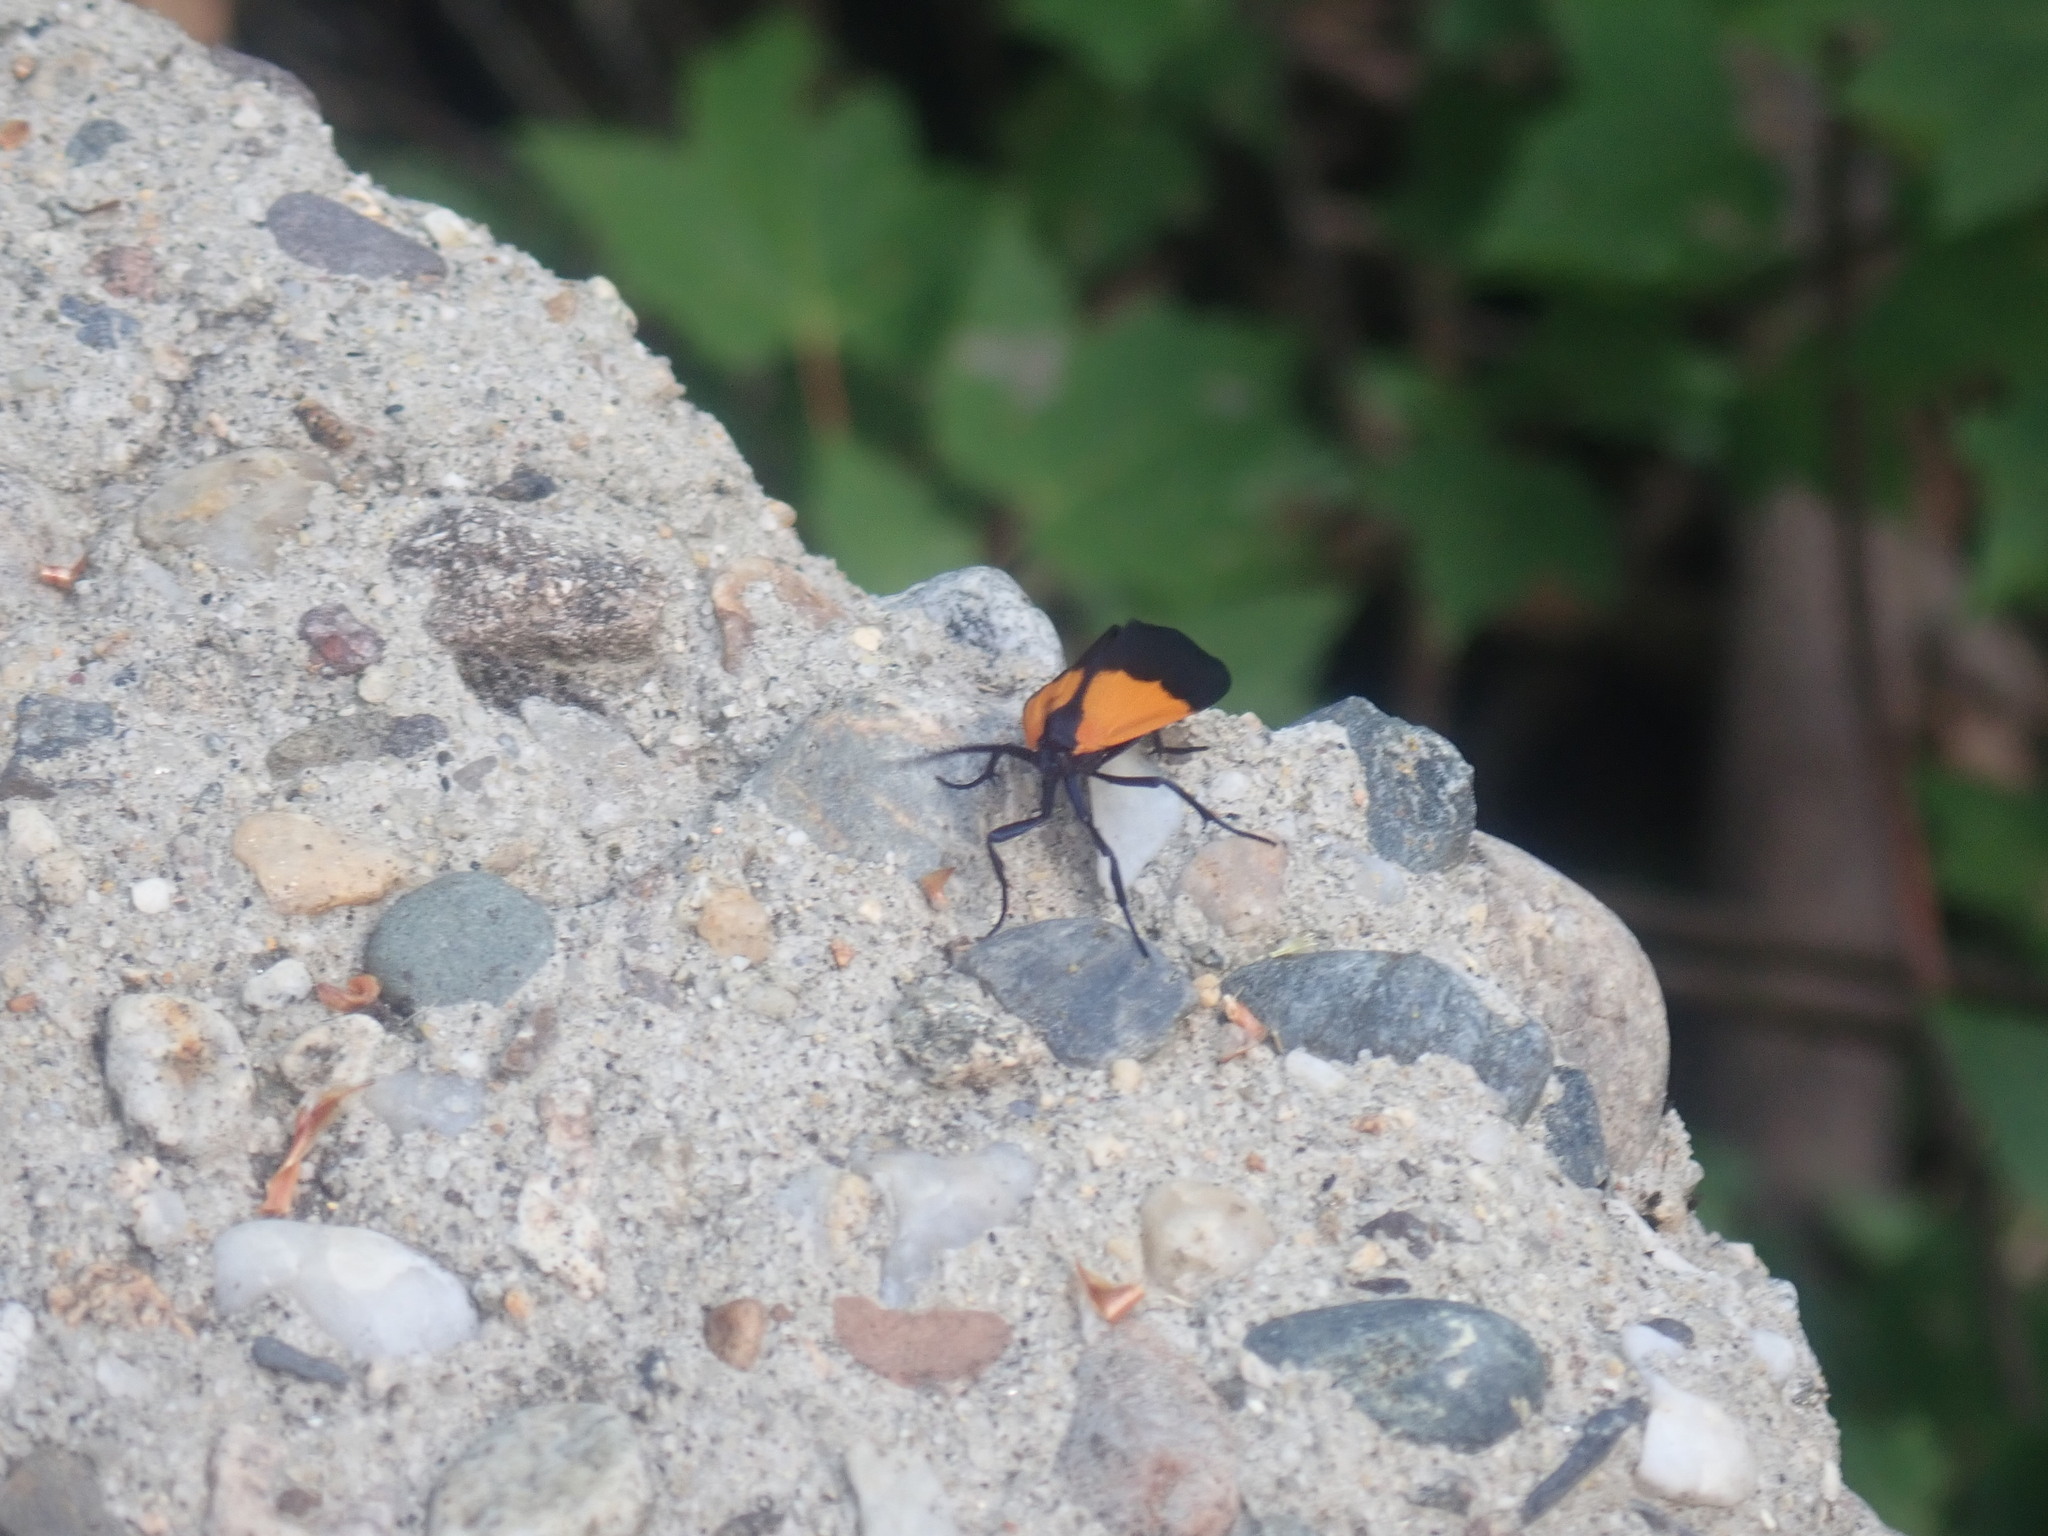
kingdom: Animalia
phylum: Arthropoda
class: Insecta
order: Lepidoptera
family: Erebidae
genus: Lycomorpha
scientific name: Lycomorpha pholus
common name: Black-and-yellow lichen moth
